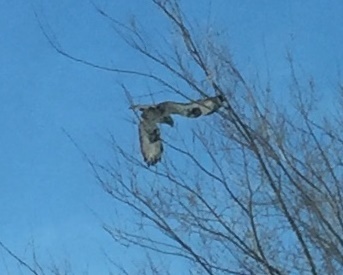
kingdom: Animalia
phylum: Chordata
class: Aves
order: Accipitriformes
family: Accipitridae
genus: Buteo
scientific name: Buteo lagopus
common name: Rough-legged buzzard
